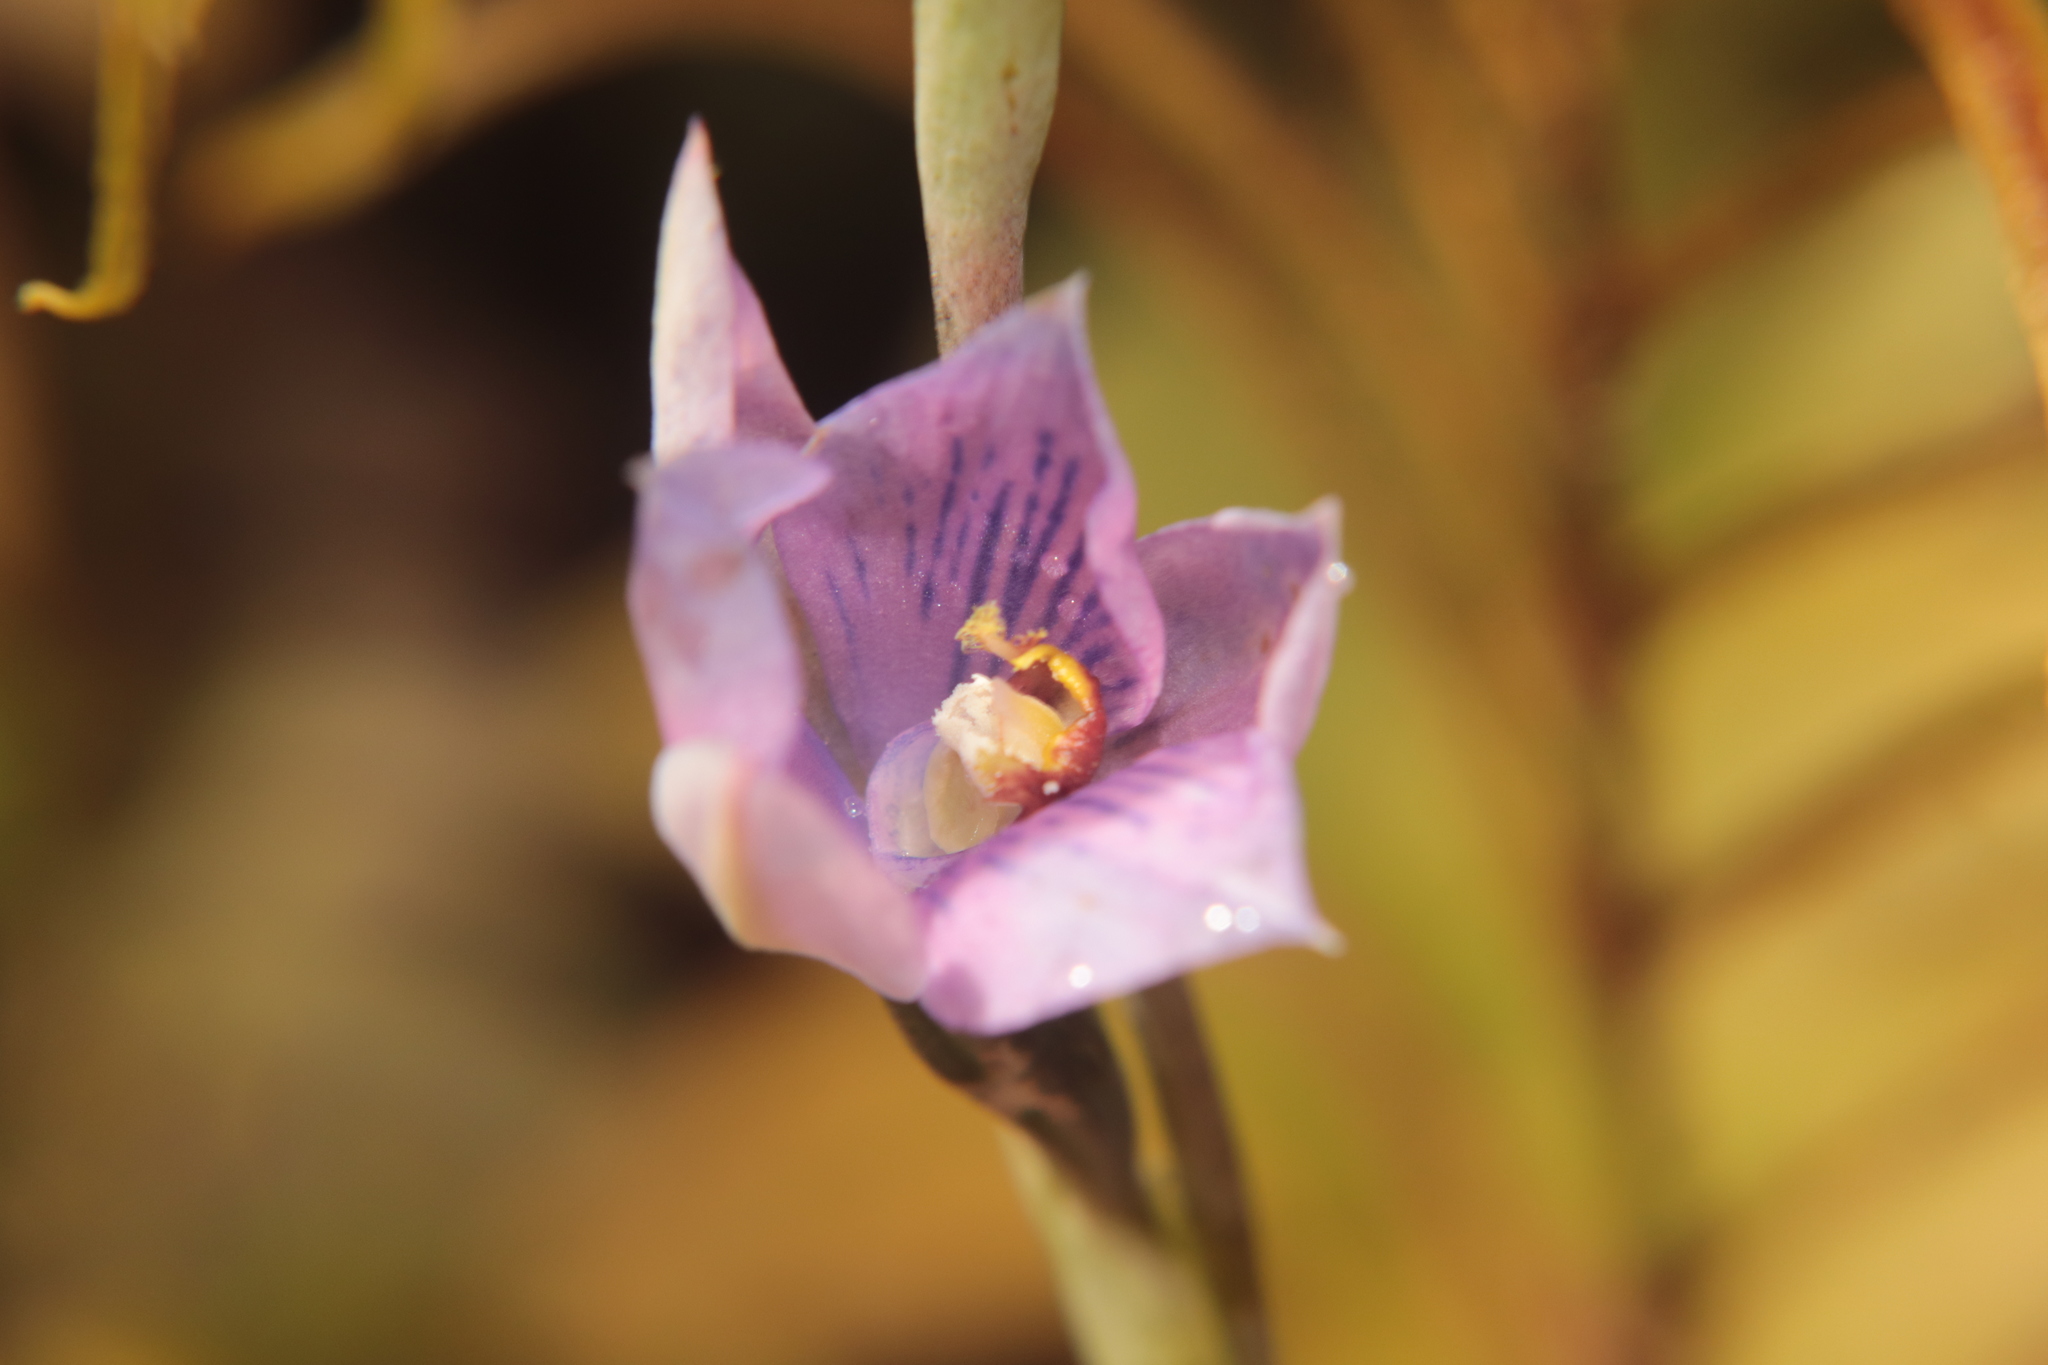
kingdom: Plantae
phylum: Tracheophyta
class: Liliopsida
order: Asparagales
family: Orchidaceae
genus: Thelymitra
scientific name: Thelymitra pulchella
